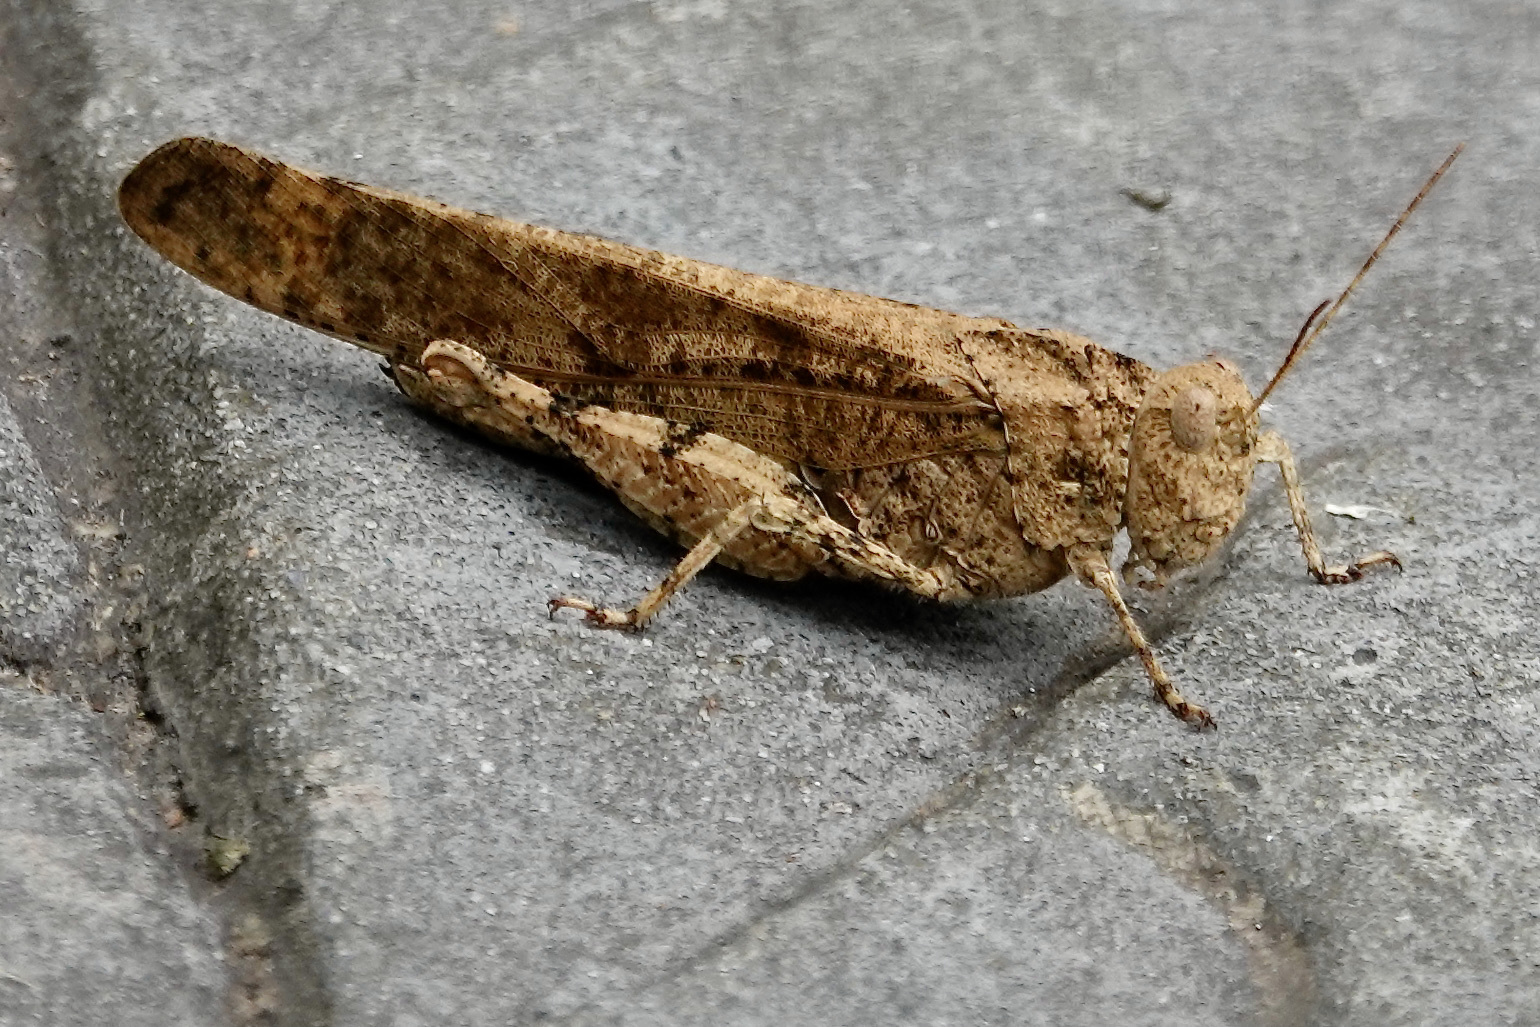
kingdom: Animalia
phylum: Arthropoda
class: Insecta
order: Orthoptera
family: Acrididae
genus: Dissosteira
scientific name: Dissosteira carolina
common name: Carolina grasshopper
